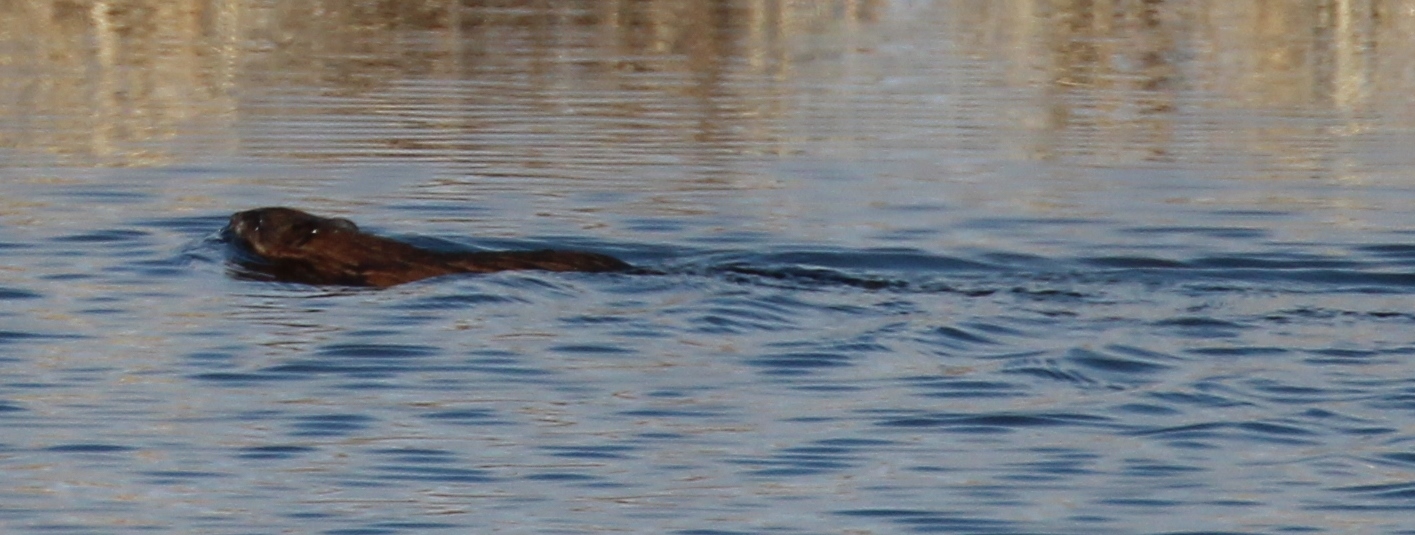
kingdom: Animalia
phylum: Chordata
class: Mammalia
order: Rodentia
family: Cricetidae
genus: Ondatra
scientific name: Ondatra zibethicus
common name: Muskrat
